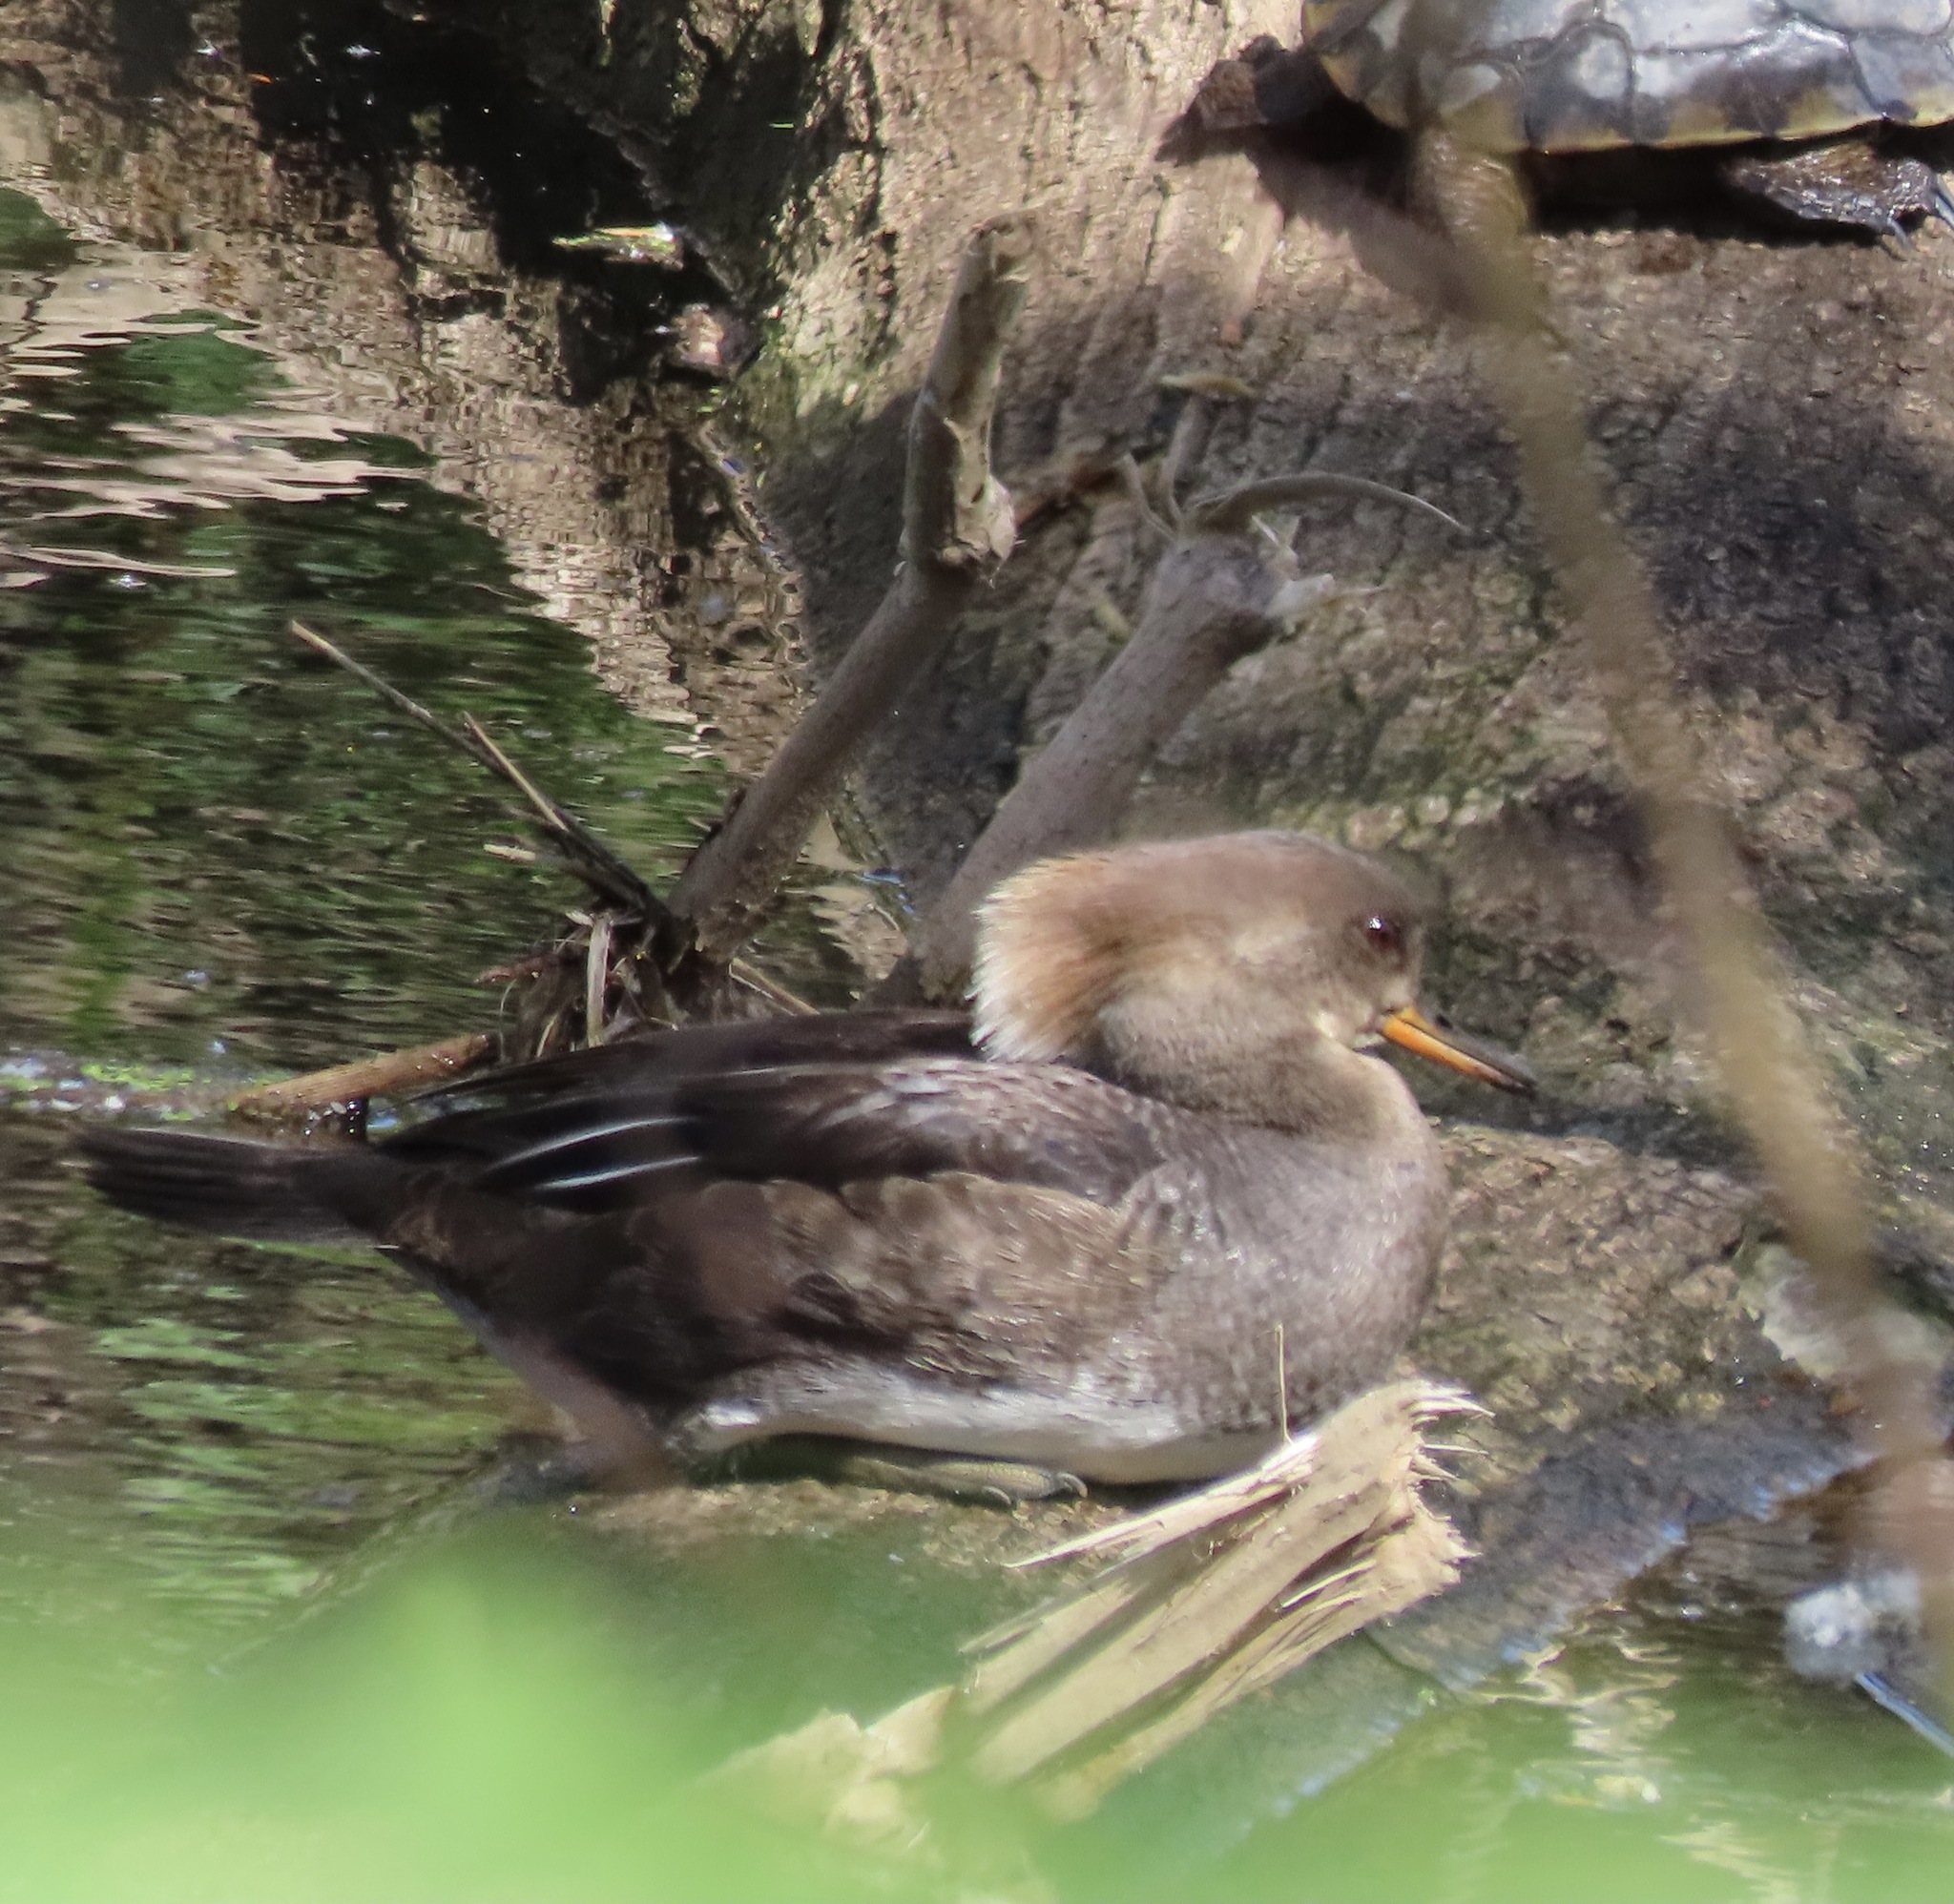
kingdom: Animalia
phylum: Chordata
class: Aves
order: Anseriformes
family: Anatidae
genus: Lophodytes
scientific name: Lophodytes cucullatus
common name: Hooded merganser
